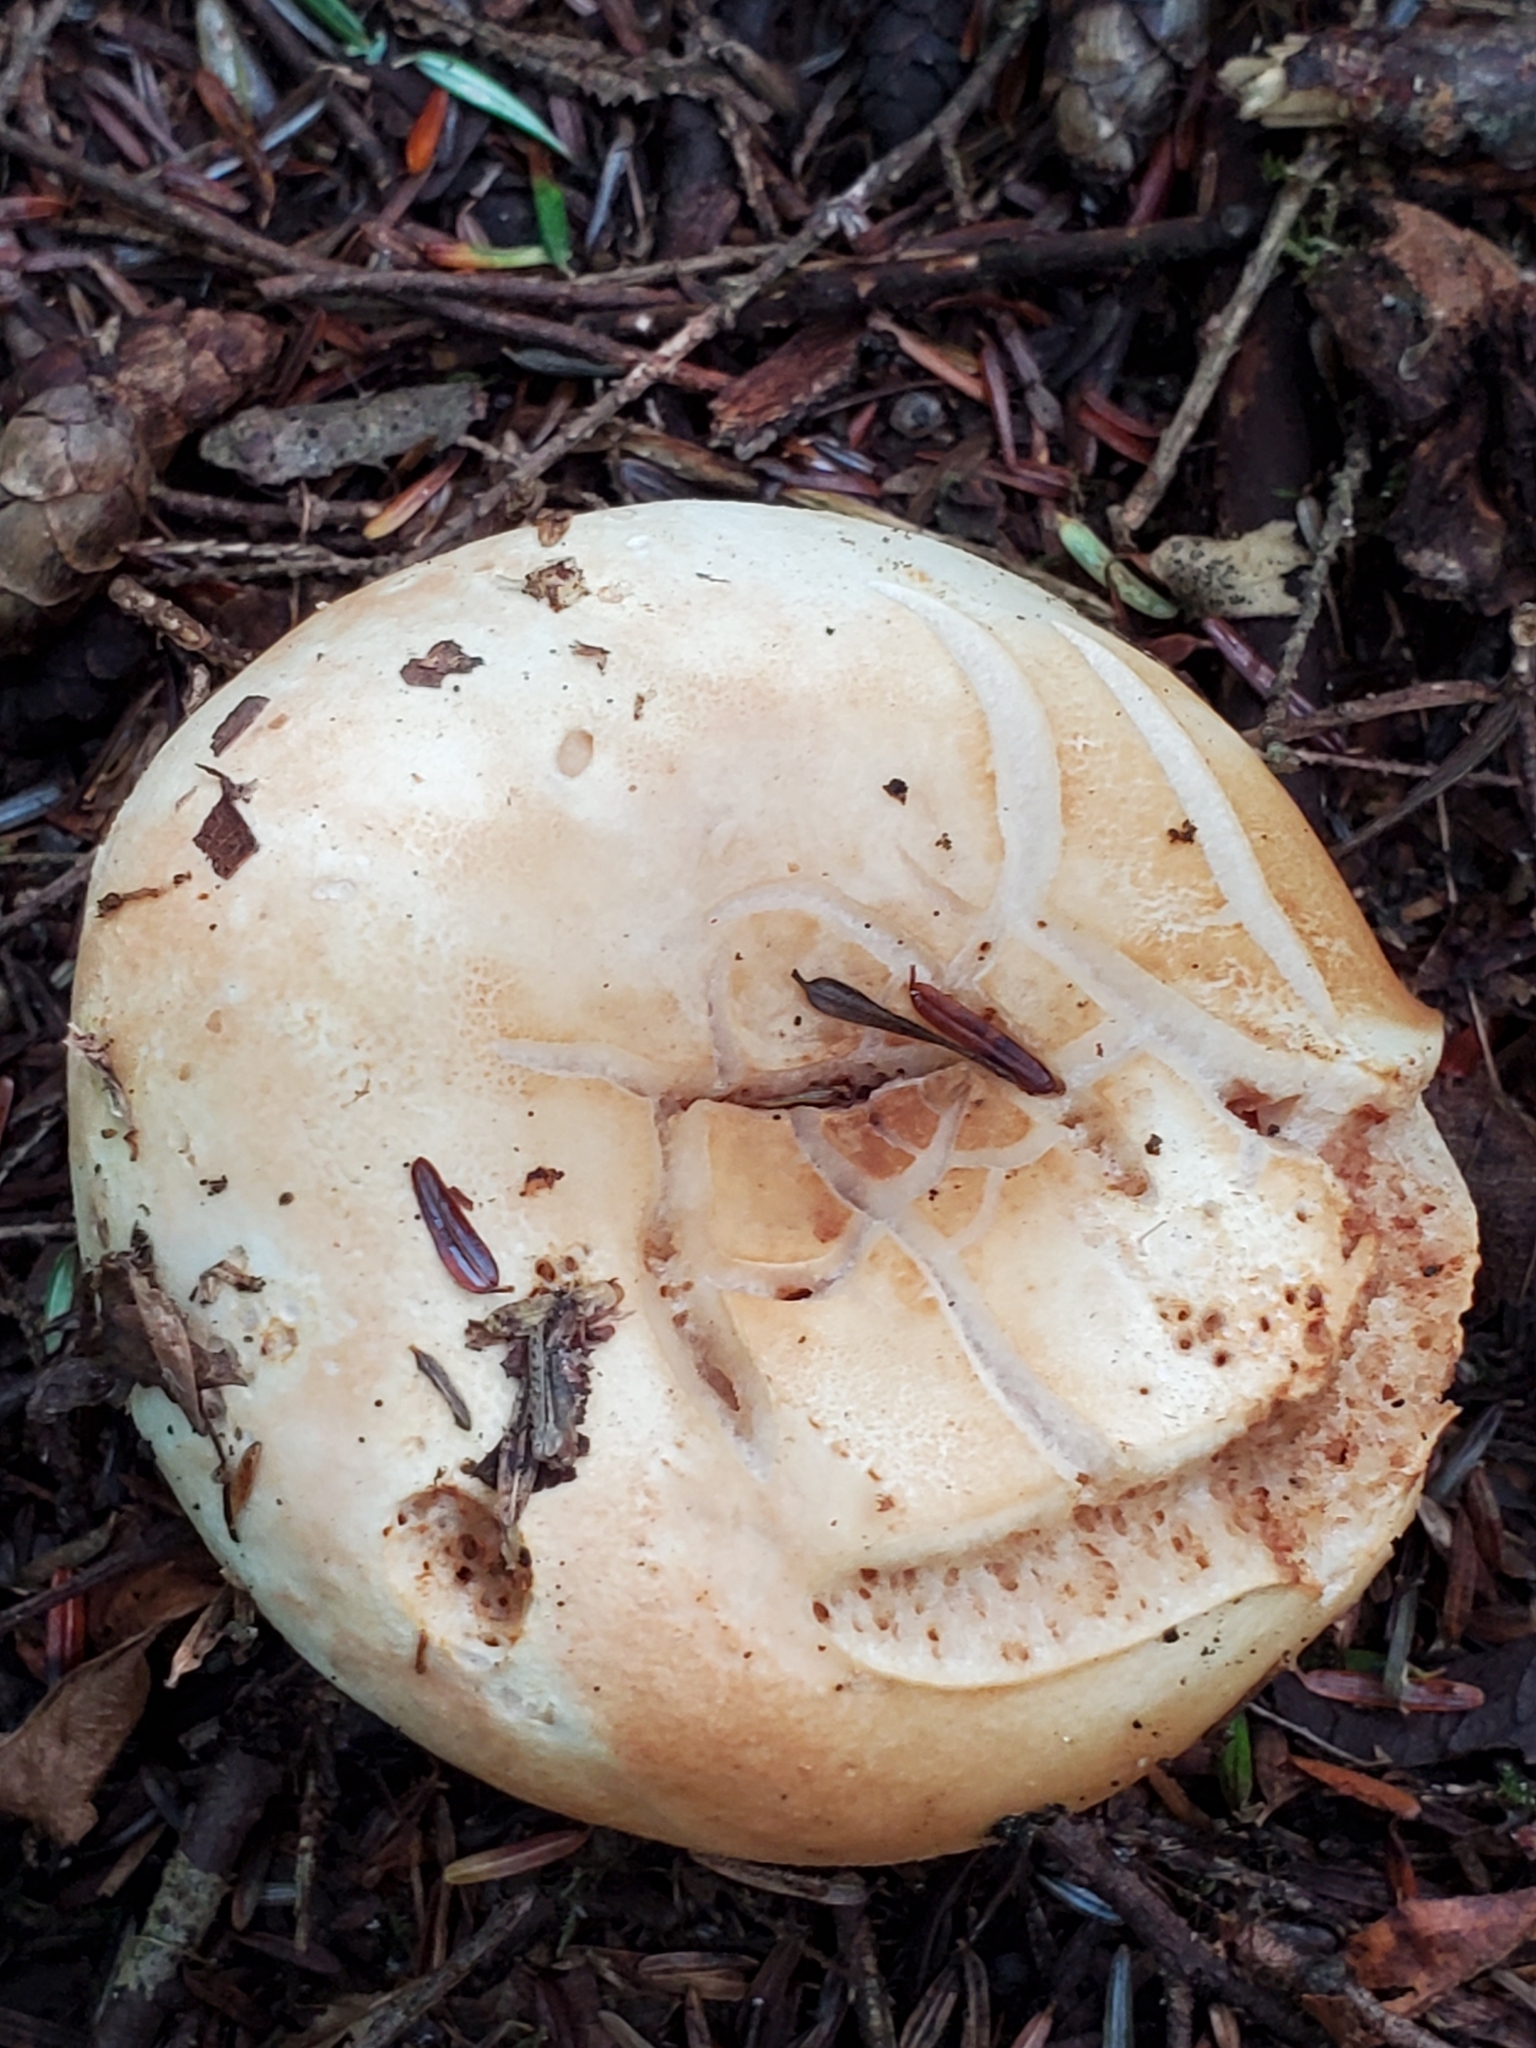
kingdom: Fungi
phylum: Basidiomycota
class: Agaricomycetes
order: Russulales
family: Russulaceae
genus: Russula
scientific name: Russula compacta
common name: Fishbiscuit russula
